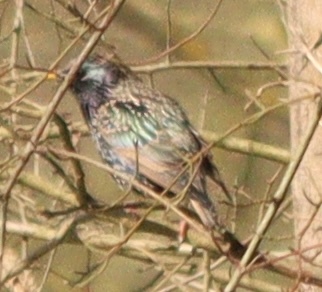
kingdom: Animalia
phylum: Chordata
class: Aves
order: Passeriformes
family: Sturnidae
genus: Sturnus
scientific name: Sturnus vulgaris
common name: Common starling
